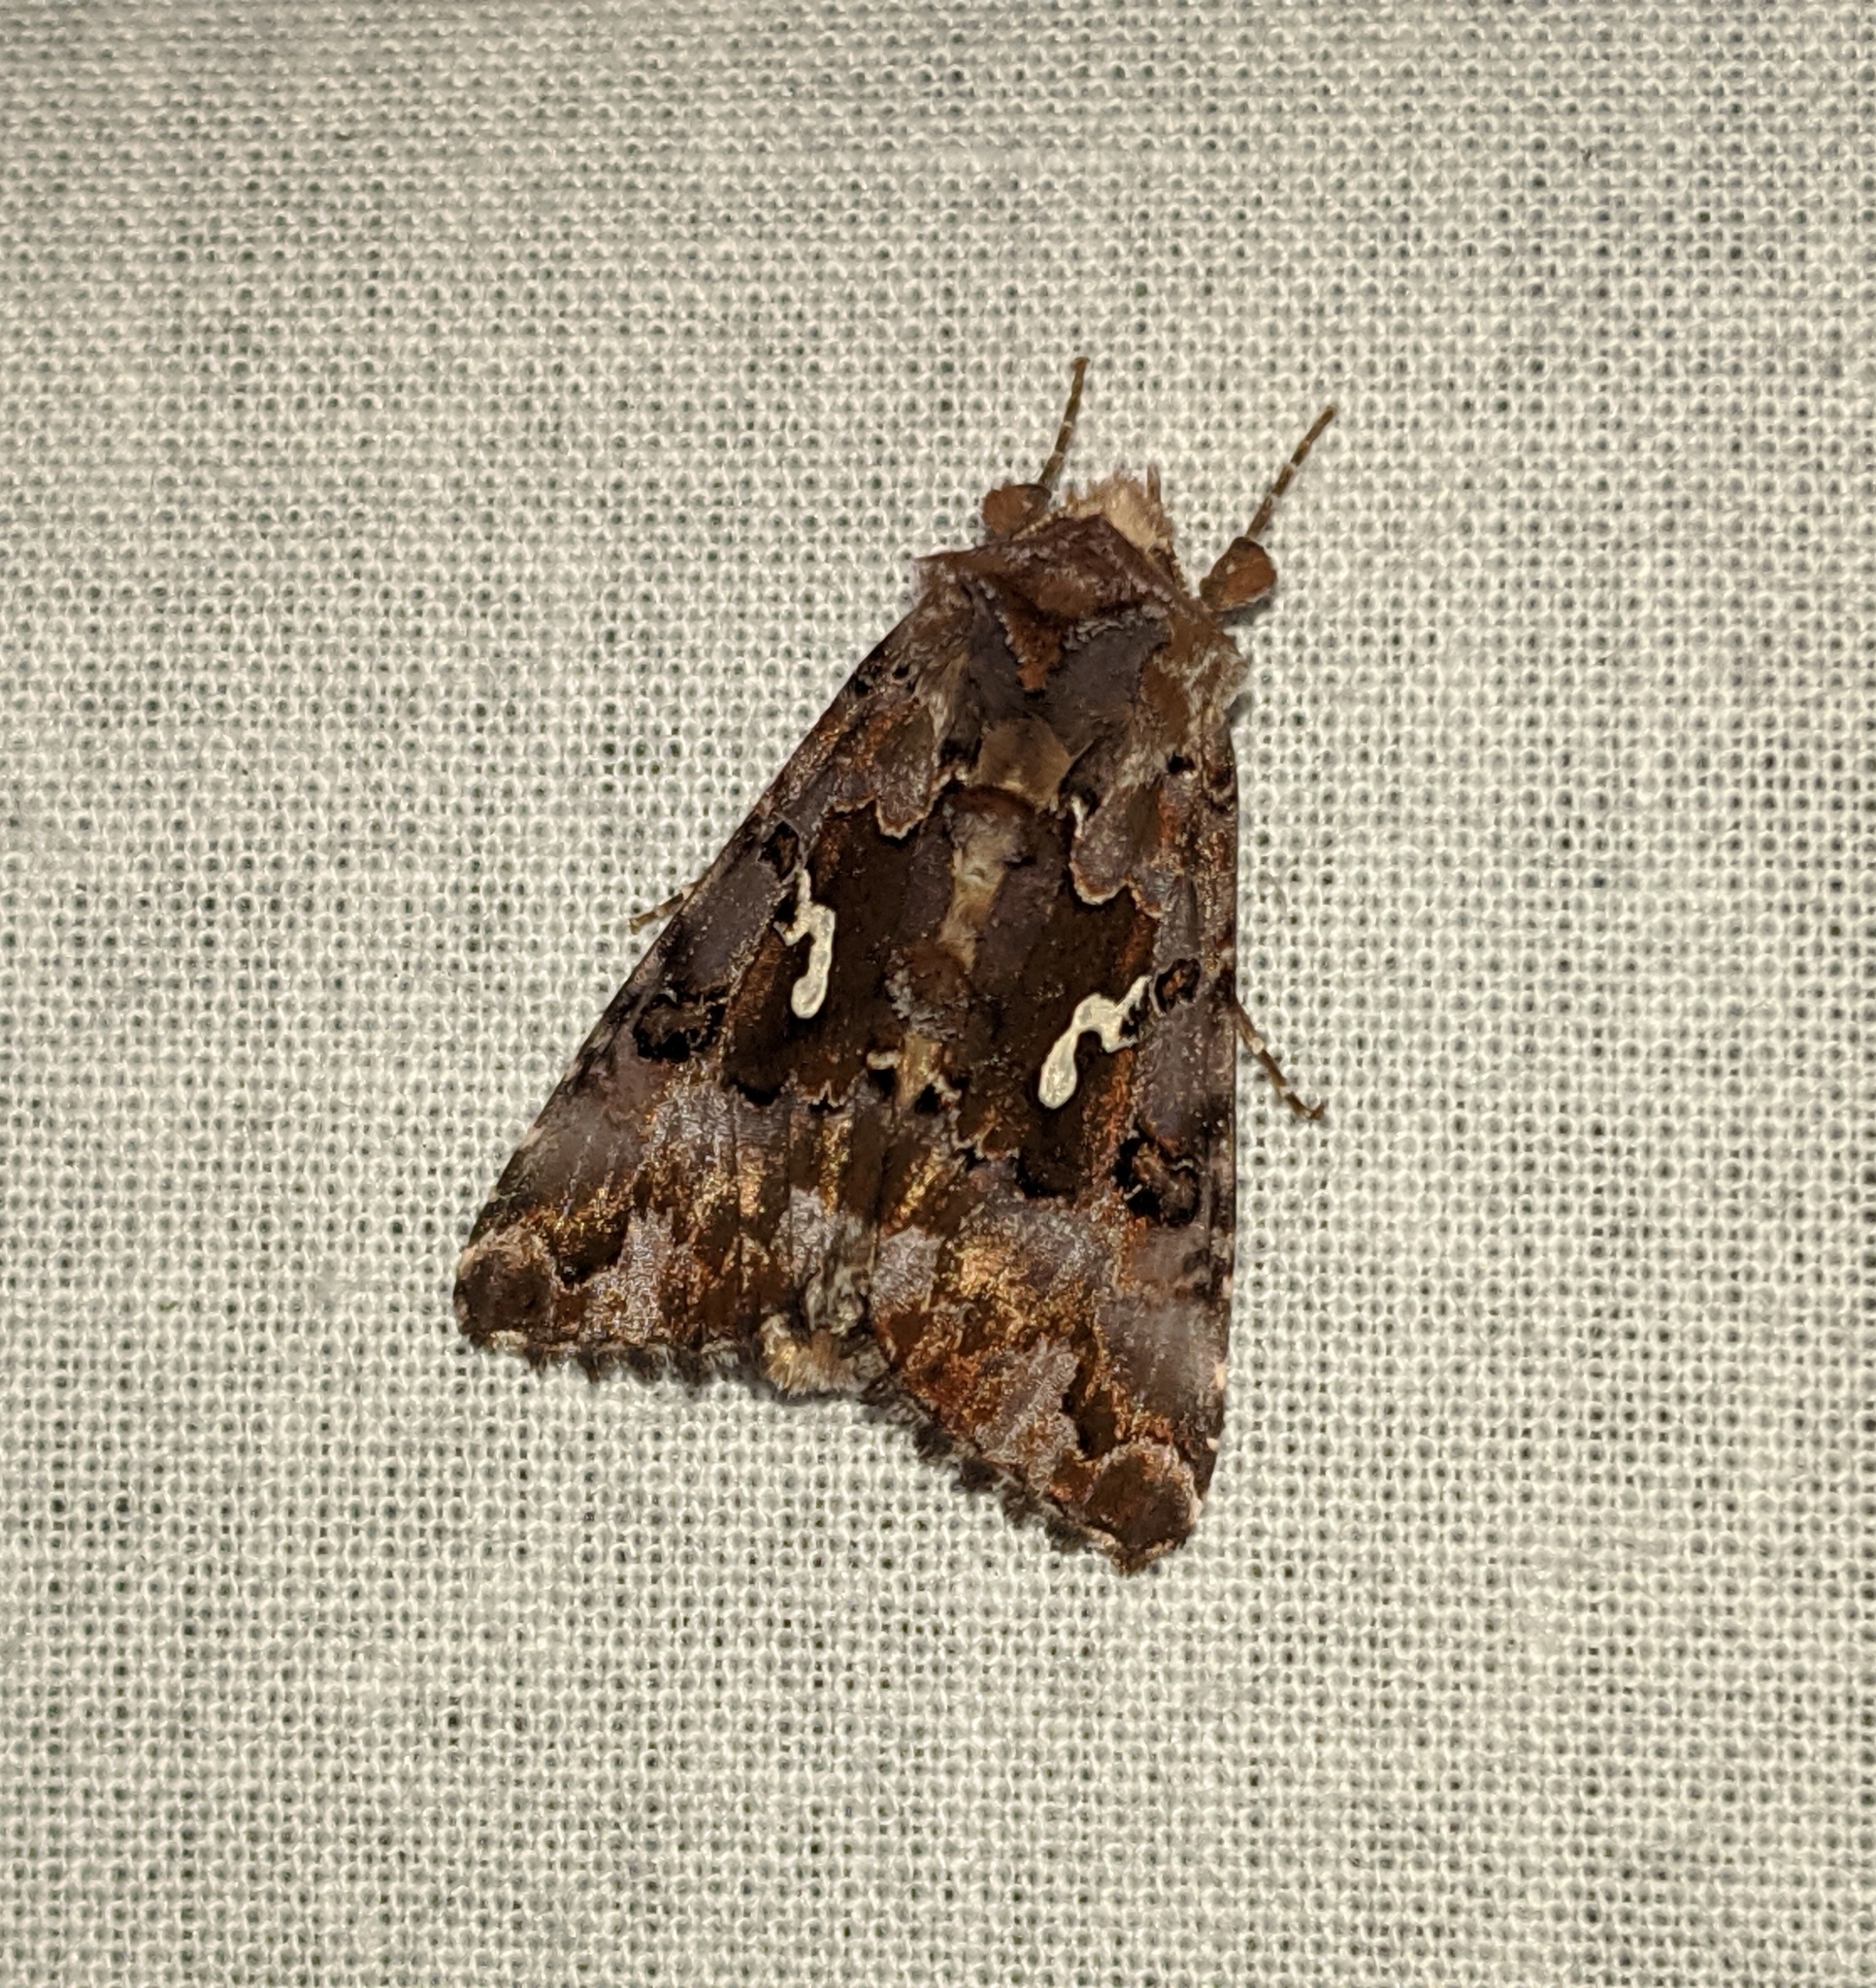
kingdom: Animalia
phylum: Arthropoda
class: Insecta
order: Lepidoptera
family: Noctuidae
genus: Autographa
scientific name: Autographa corusca
